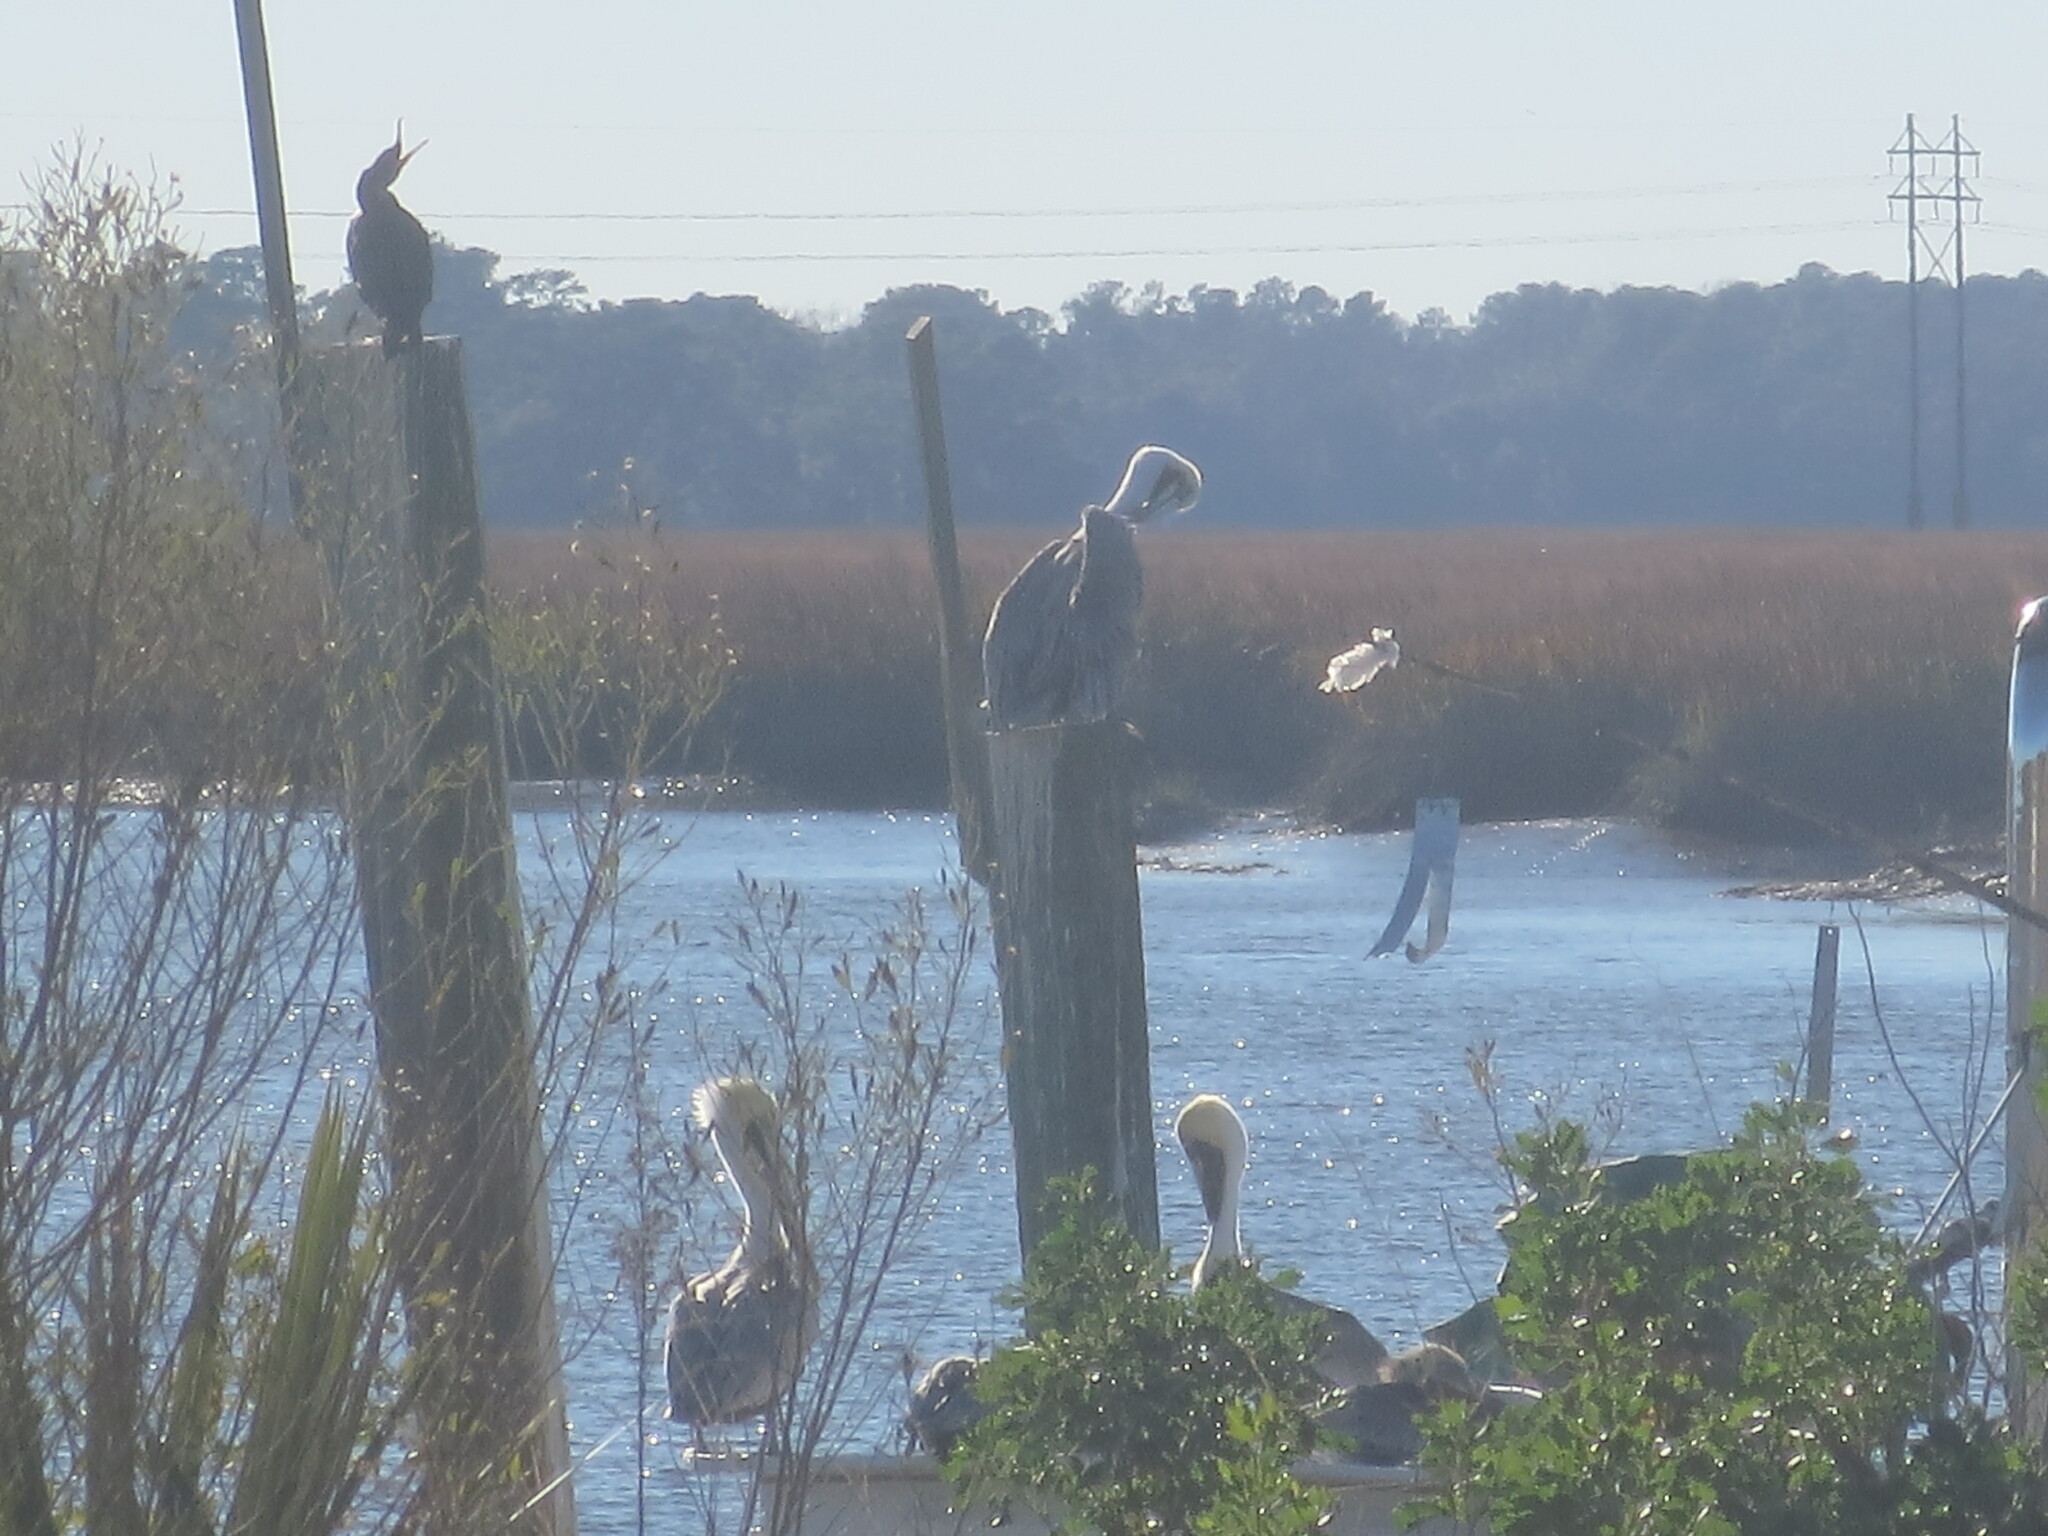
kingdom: Animalia
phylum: Chordata
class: Aves
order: Pelecaniformes
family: Pelecanidae
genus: Pelecanus
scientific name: Pelecanus occidentalis
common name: Brown pelican
